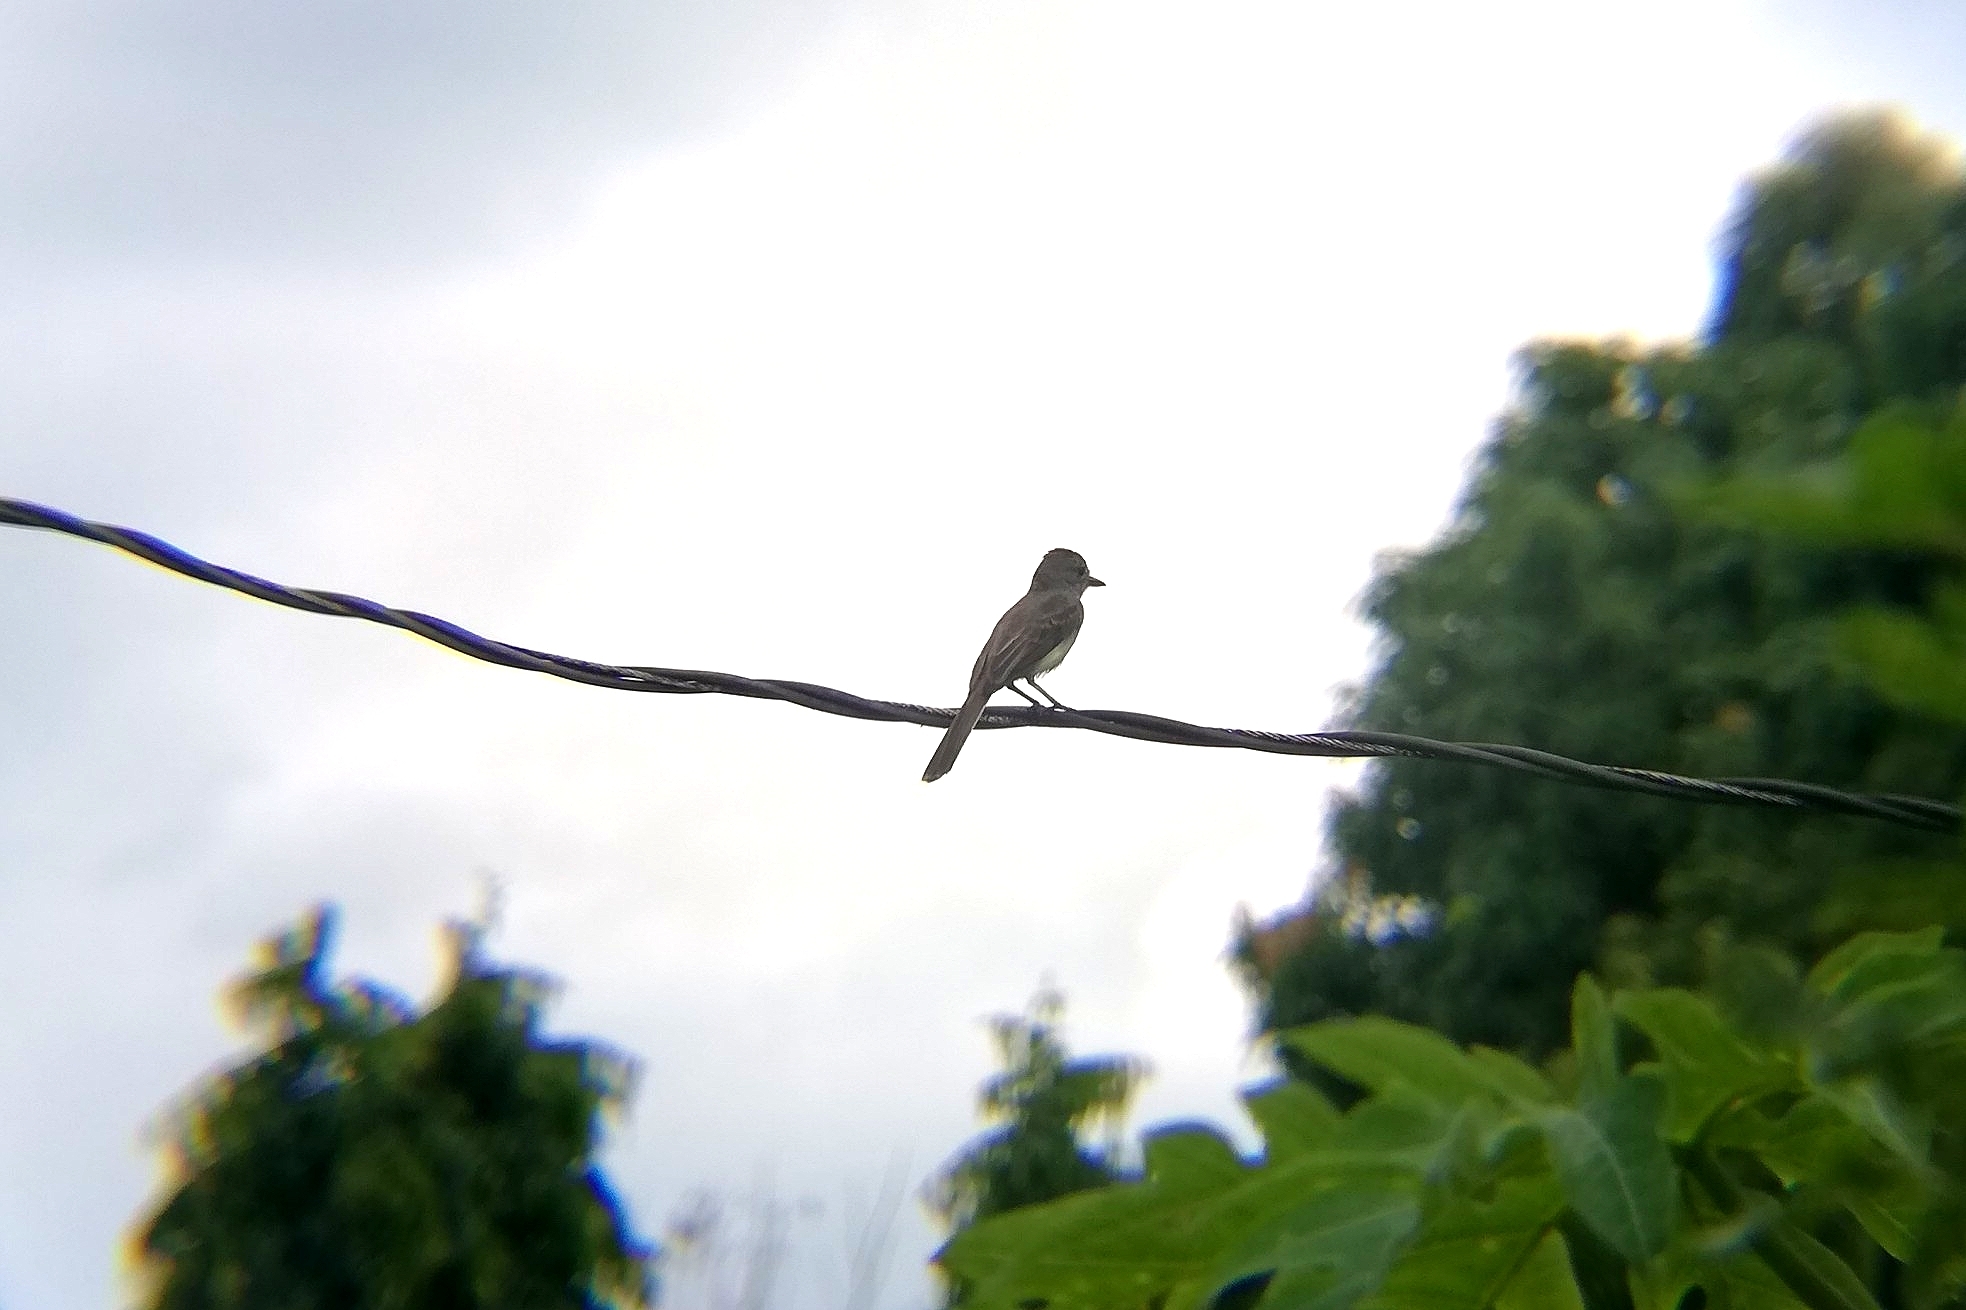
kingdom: Animalia
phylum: Chordata
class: Aves
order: Passeriformes
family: Tyrannidae
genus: Myiarchus
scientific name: Myiarchus panamensis
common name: Panama flycatcher
